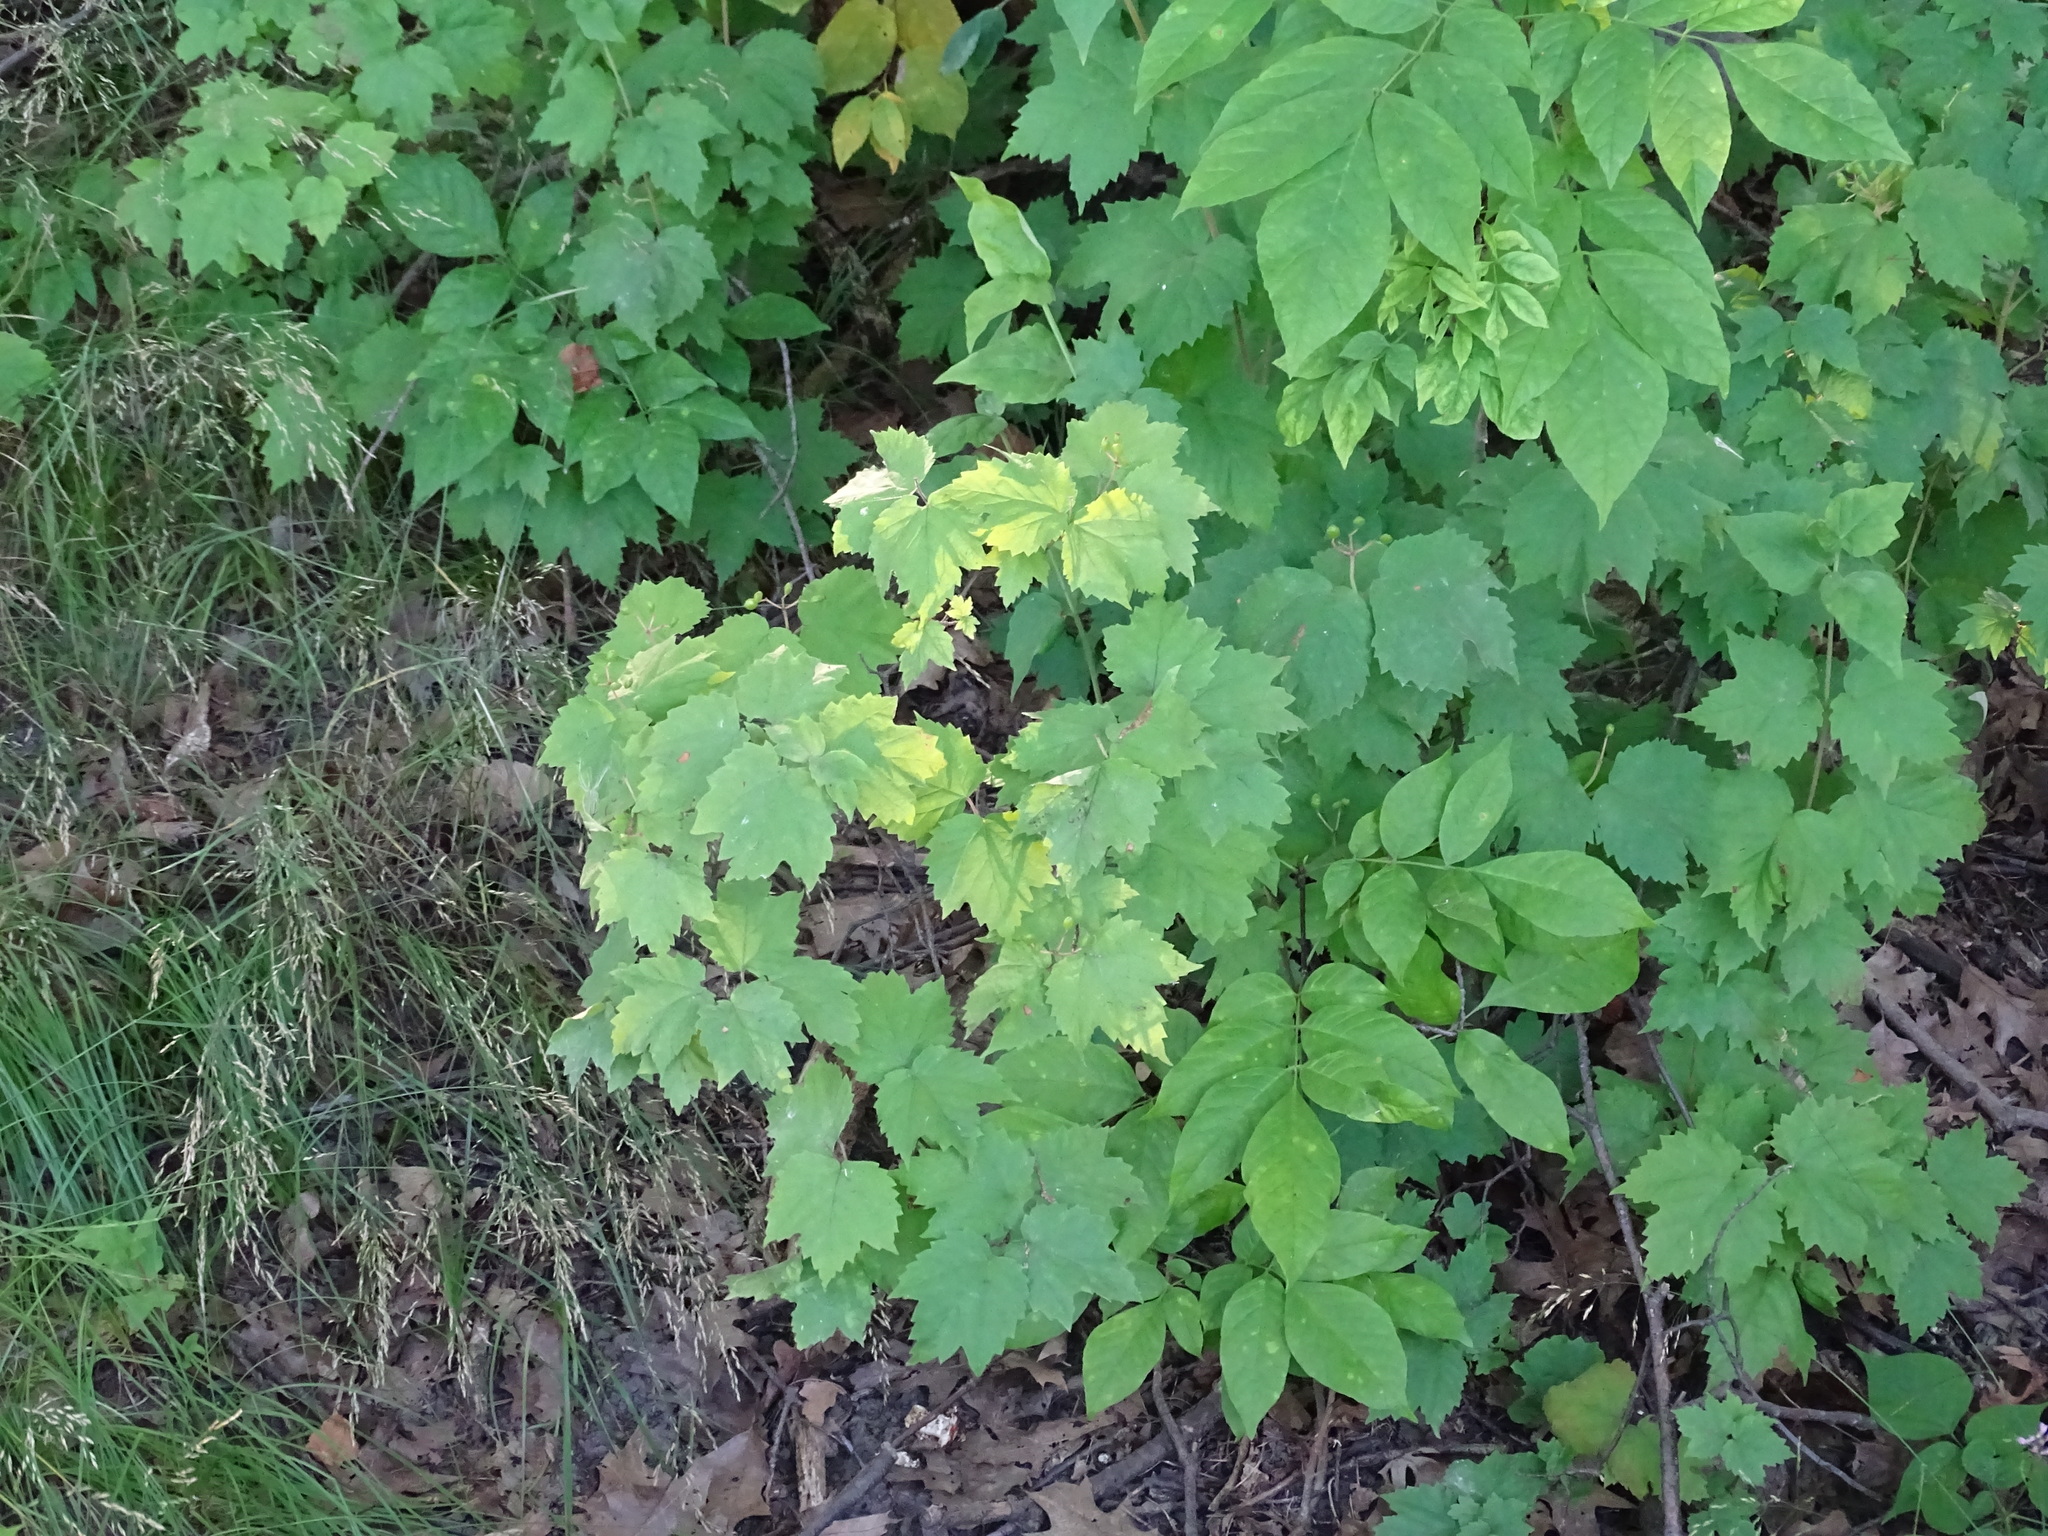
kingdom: Plantae
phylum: Tracheophyta
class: Magnoliopsida
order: Dipsacales
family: Viburnaceae
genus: Viburnum
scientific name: Viburnum acerifolium
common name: Dockmackie
